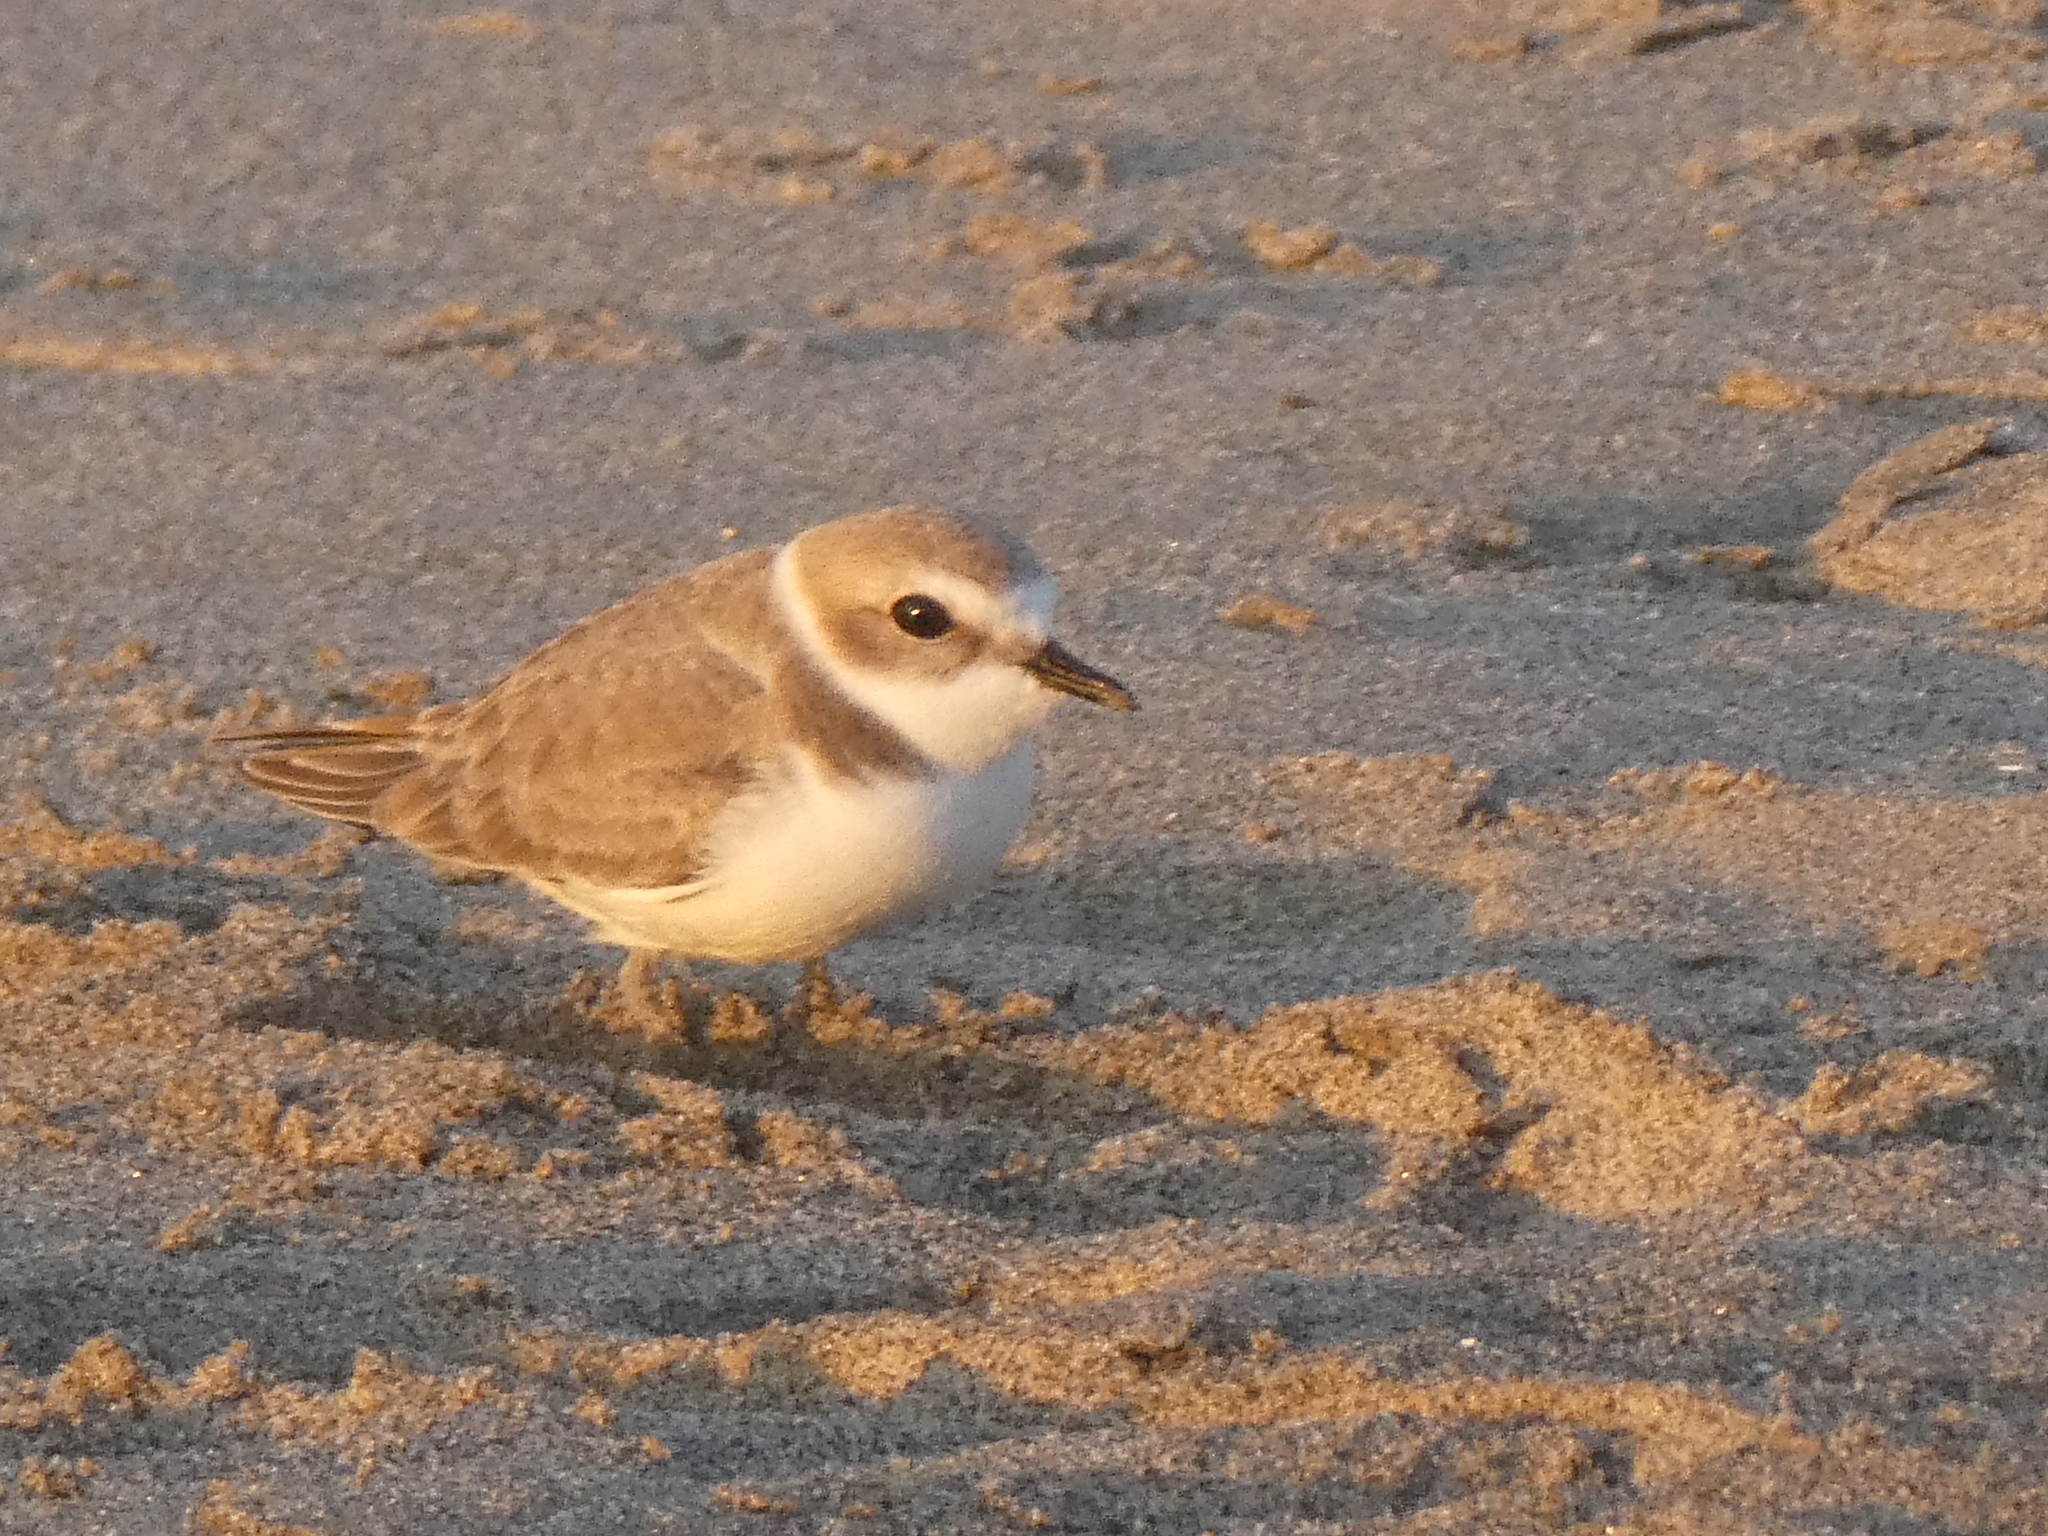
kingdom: Animalia
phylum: Chordata
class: Aves
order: Charadriiformes
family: Charadriidae
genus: Anarhynchus
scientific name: Anarhynchus
